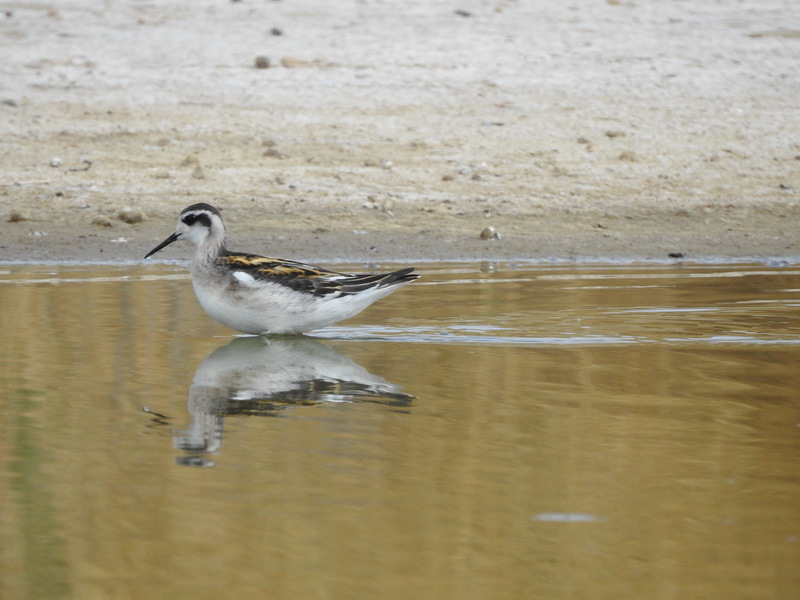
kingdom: Animalia
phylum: Chordata
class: Aves
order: Charadriiformes
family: Scolopacidae
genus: Phalaropus
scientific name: Phalaropus lobatus
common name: Red-necked phalarope
